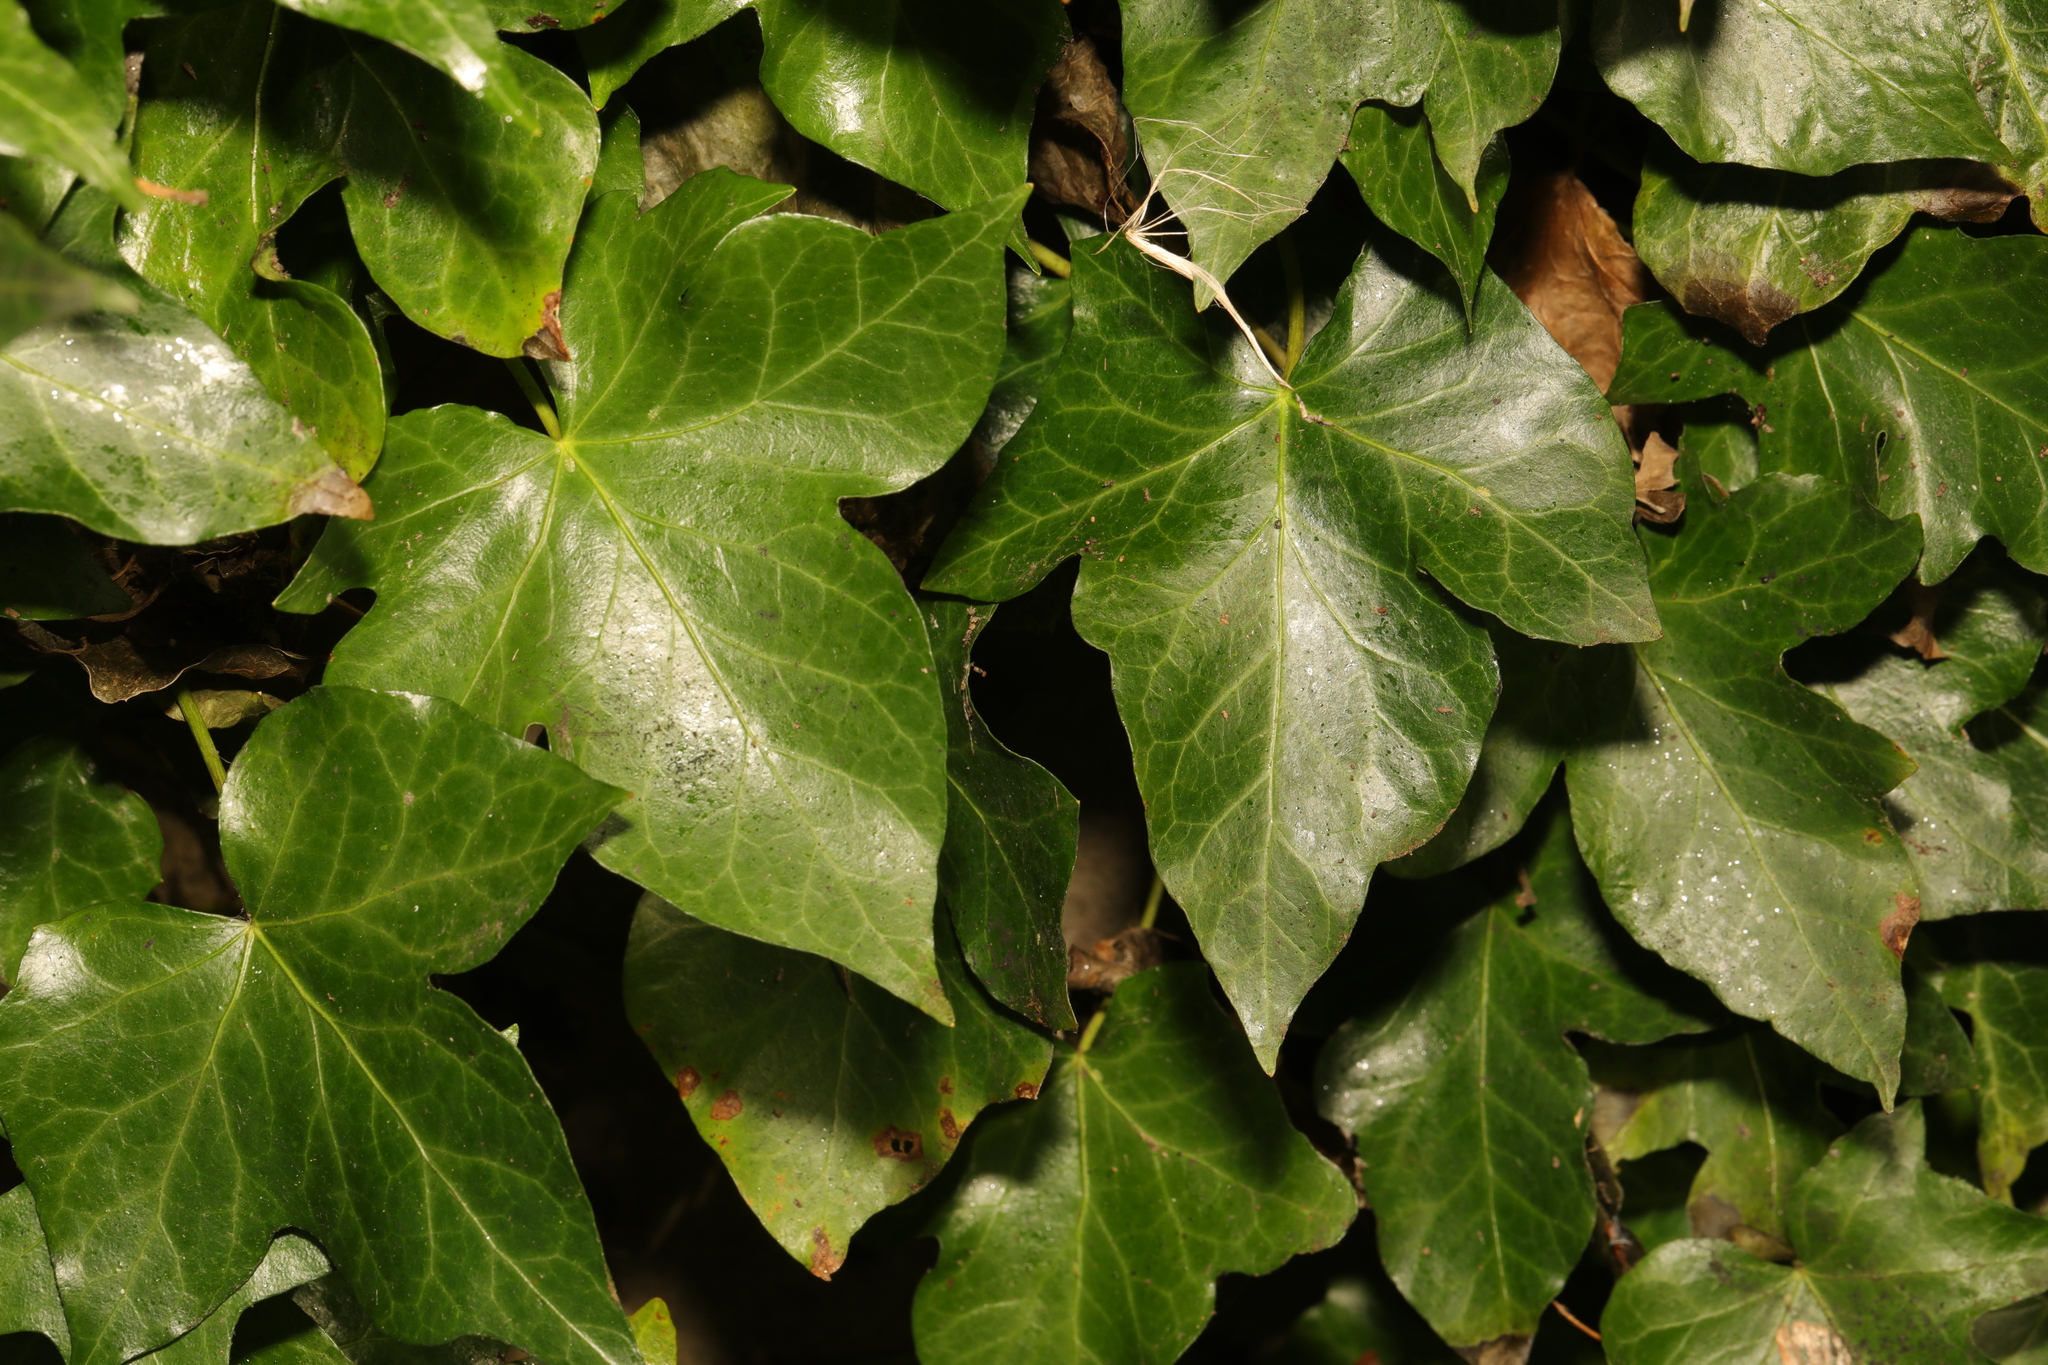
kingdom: Plantae
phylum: Tracheophyta
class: Magnoliopsida
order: Apiales
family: Araliaceae
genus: Hedera
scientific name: Hedera helix
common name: Ivy
